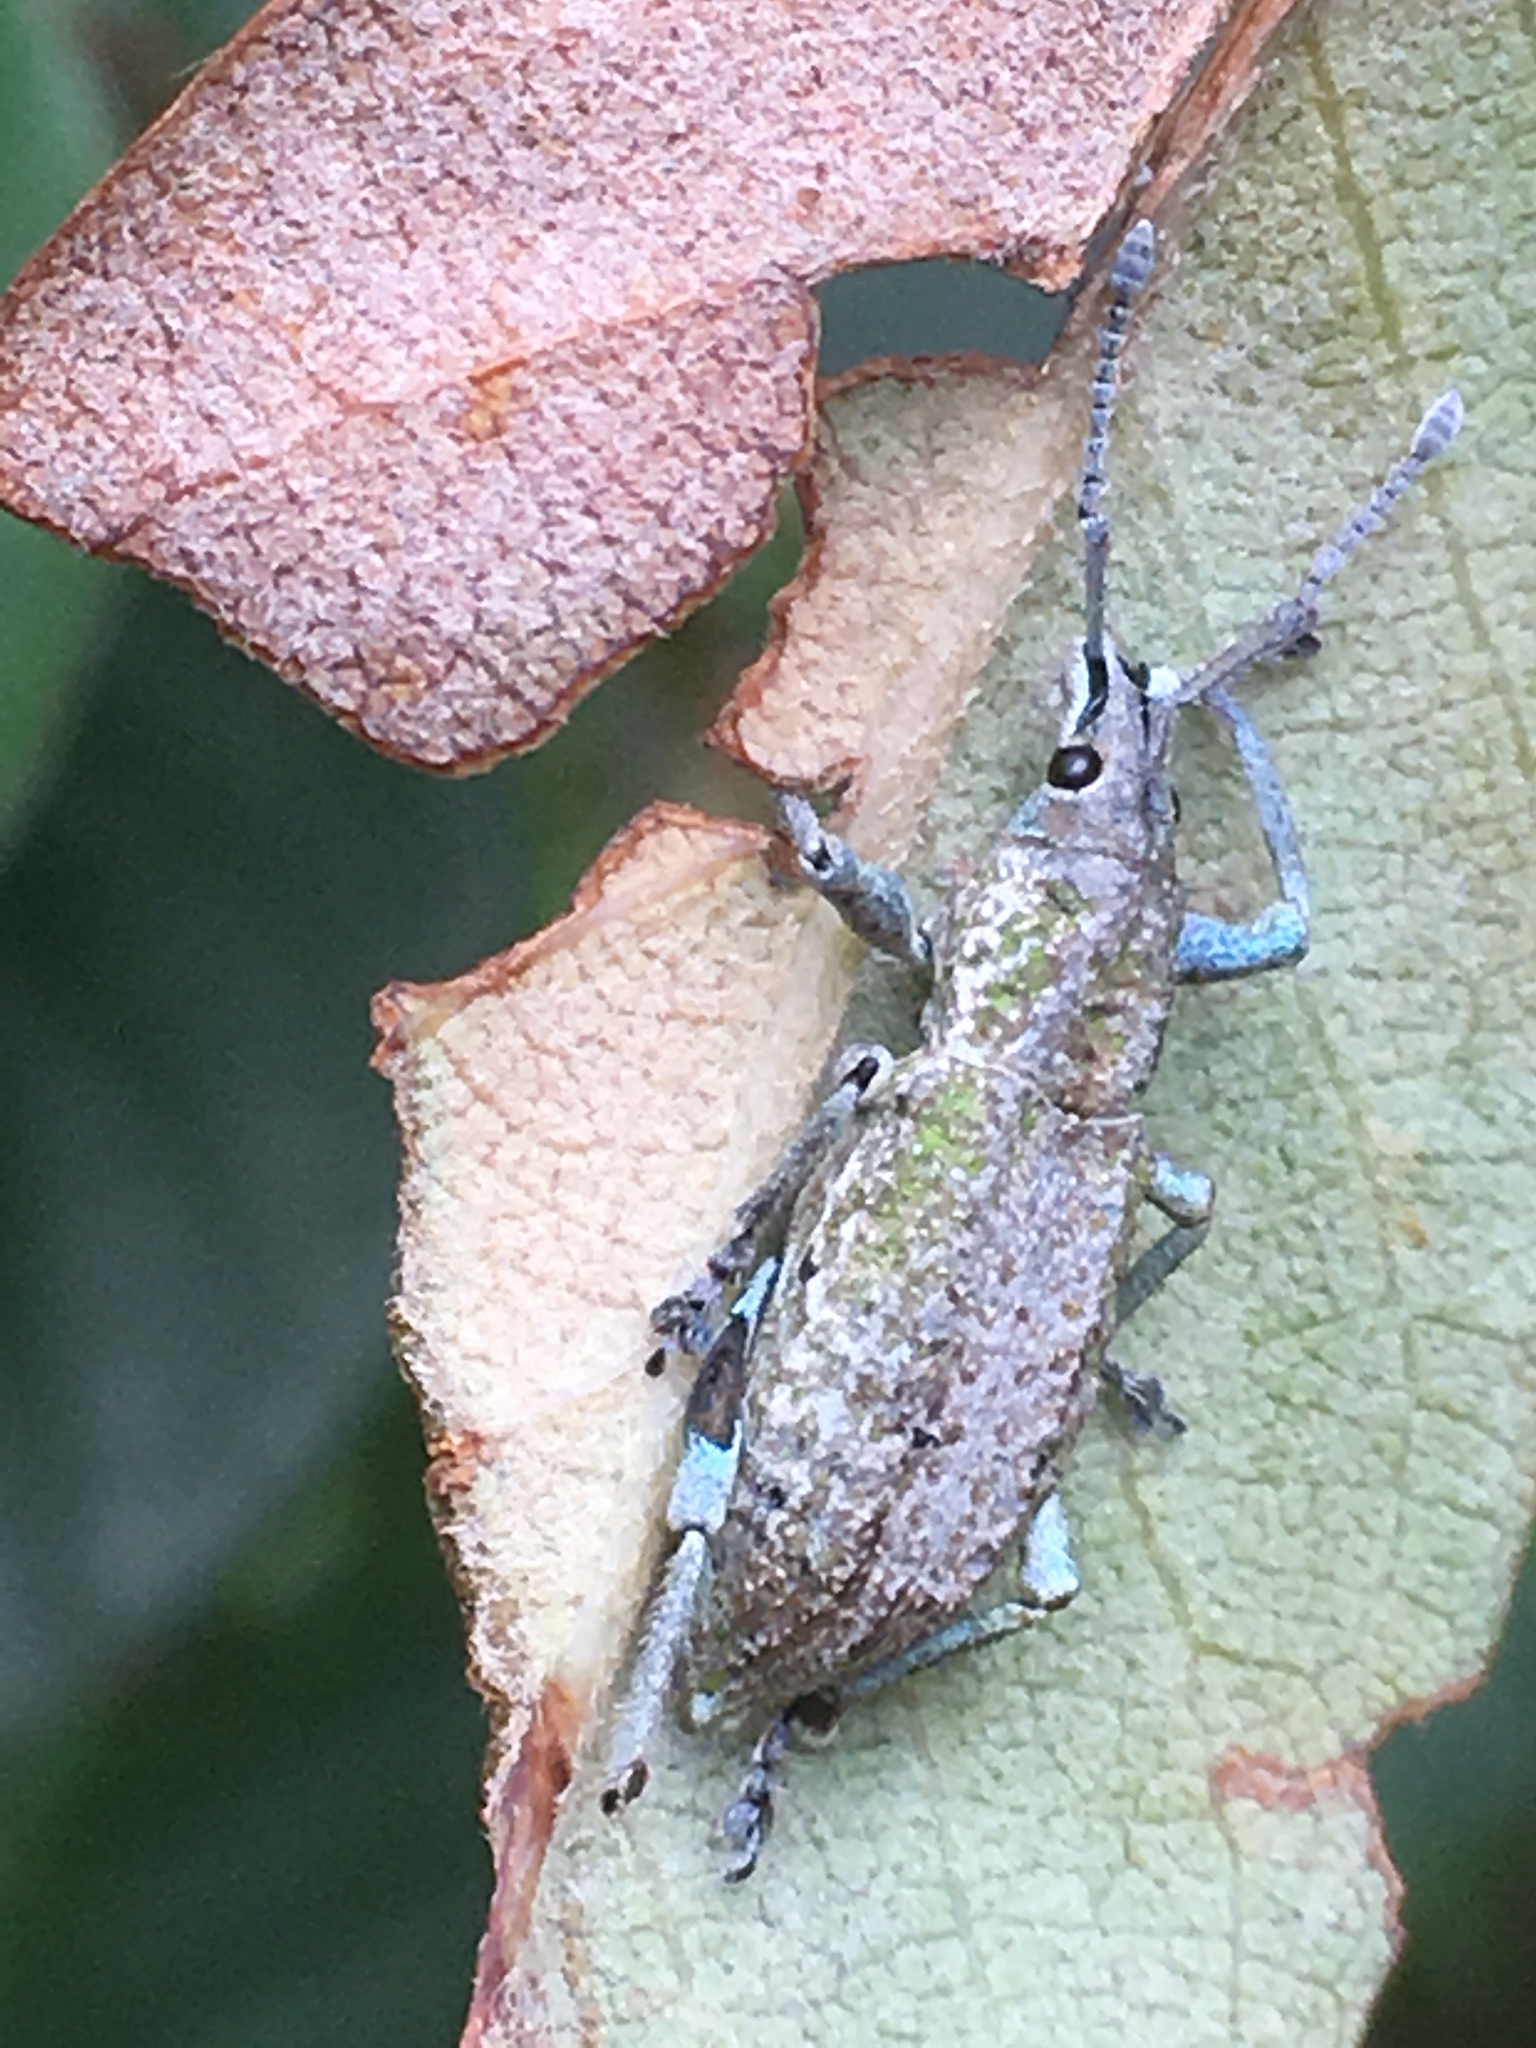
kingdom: Animalia
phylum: Arthropoda
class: Insecta
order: Coleoptera
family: Curculionidae
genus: Compsus
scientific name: Compsus canescens
